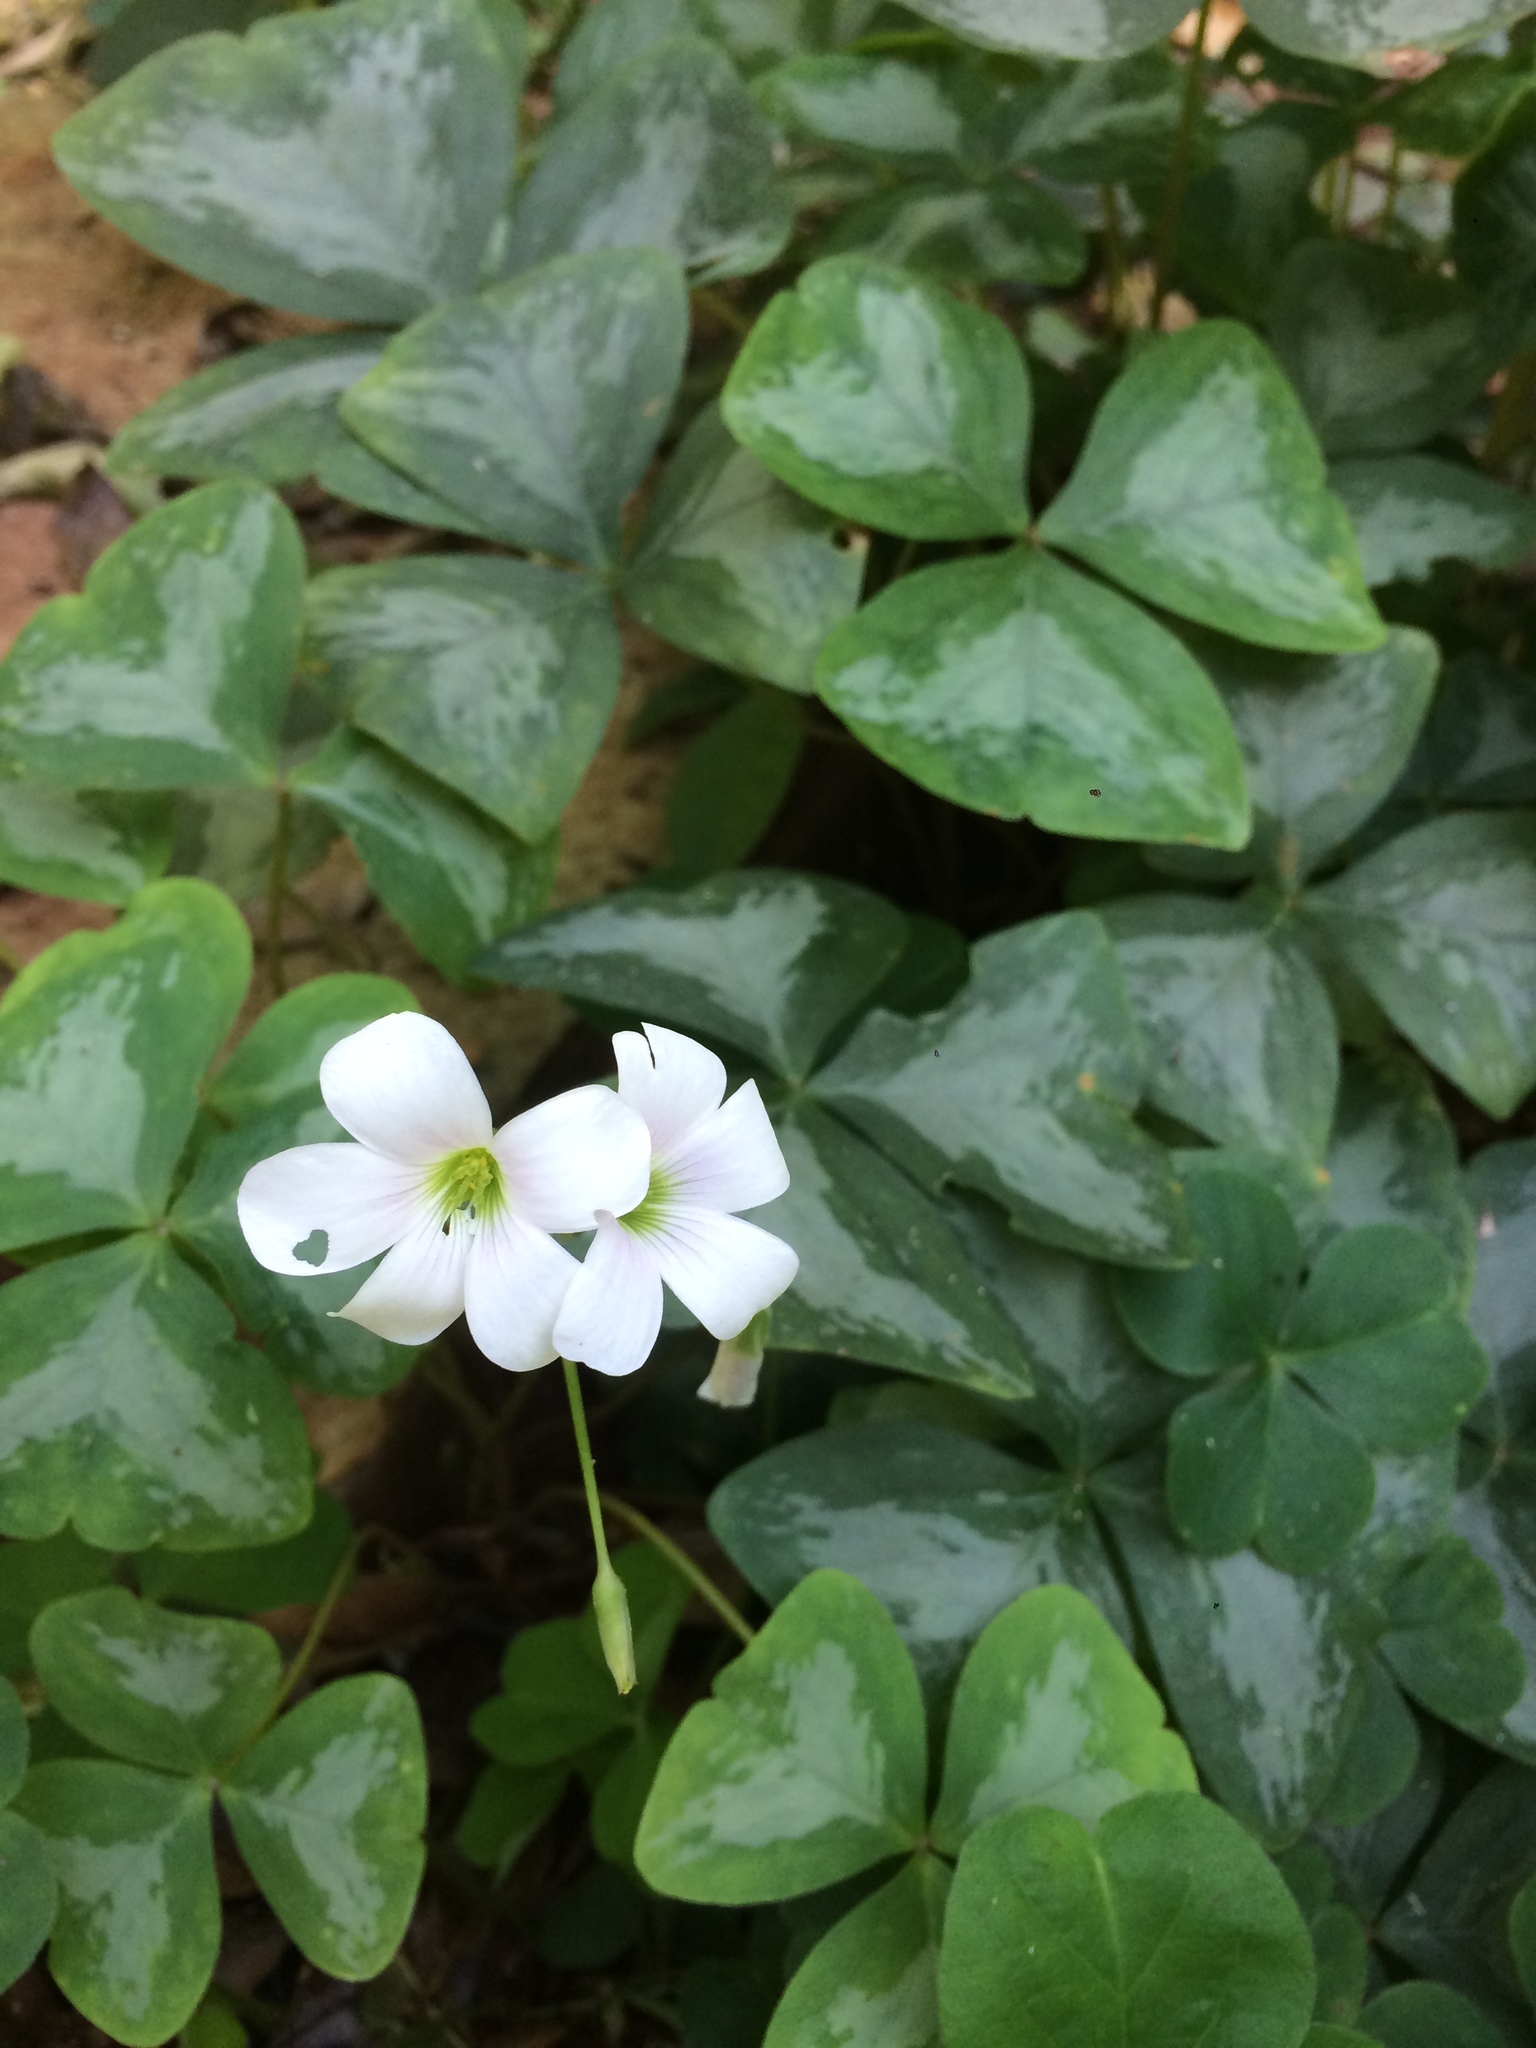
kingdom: Plantae
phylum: Tracheophyta
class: Magnoliopsida
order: Oxalidales
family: Oxalidaceae
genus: Oxalis
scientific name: Oxalis triangularis
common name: Wood sorrel
